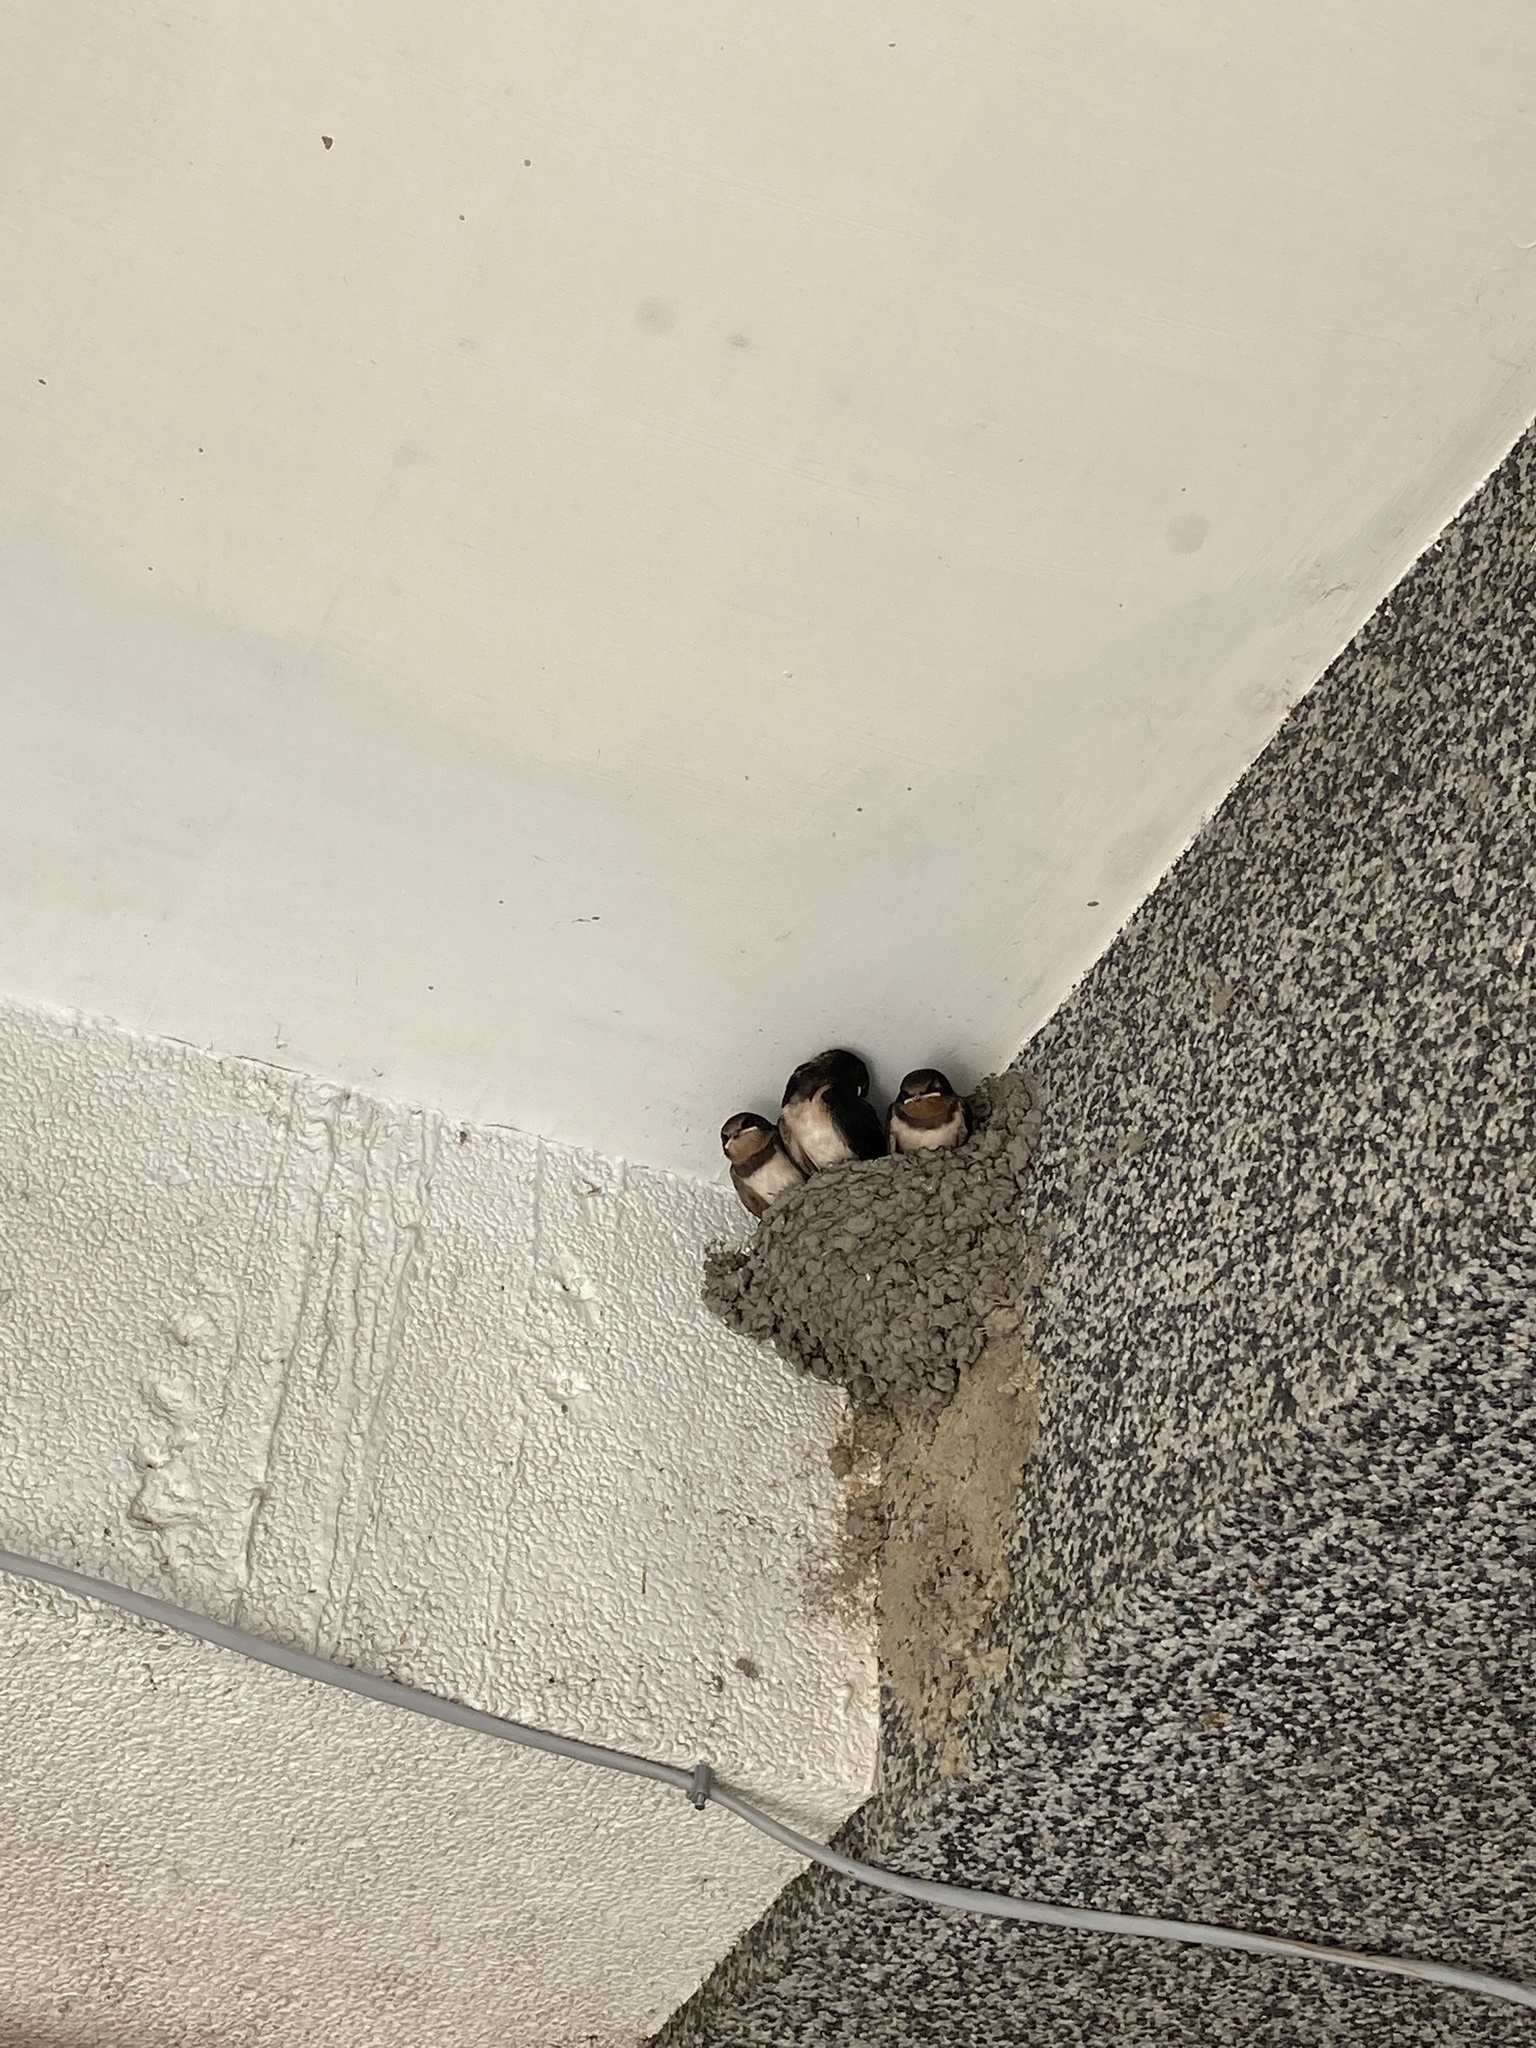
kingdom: Animalia
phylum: Chordata
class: Aves
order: Passeriformes
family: Hirundinidae
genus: Hirundo
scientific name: Hirundo rustica
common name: Barn swallow
